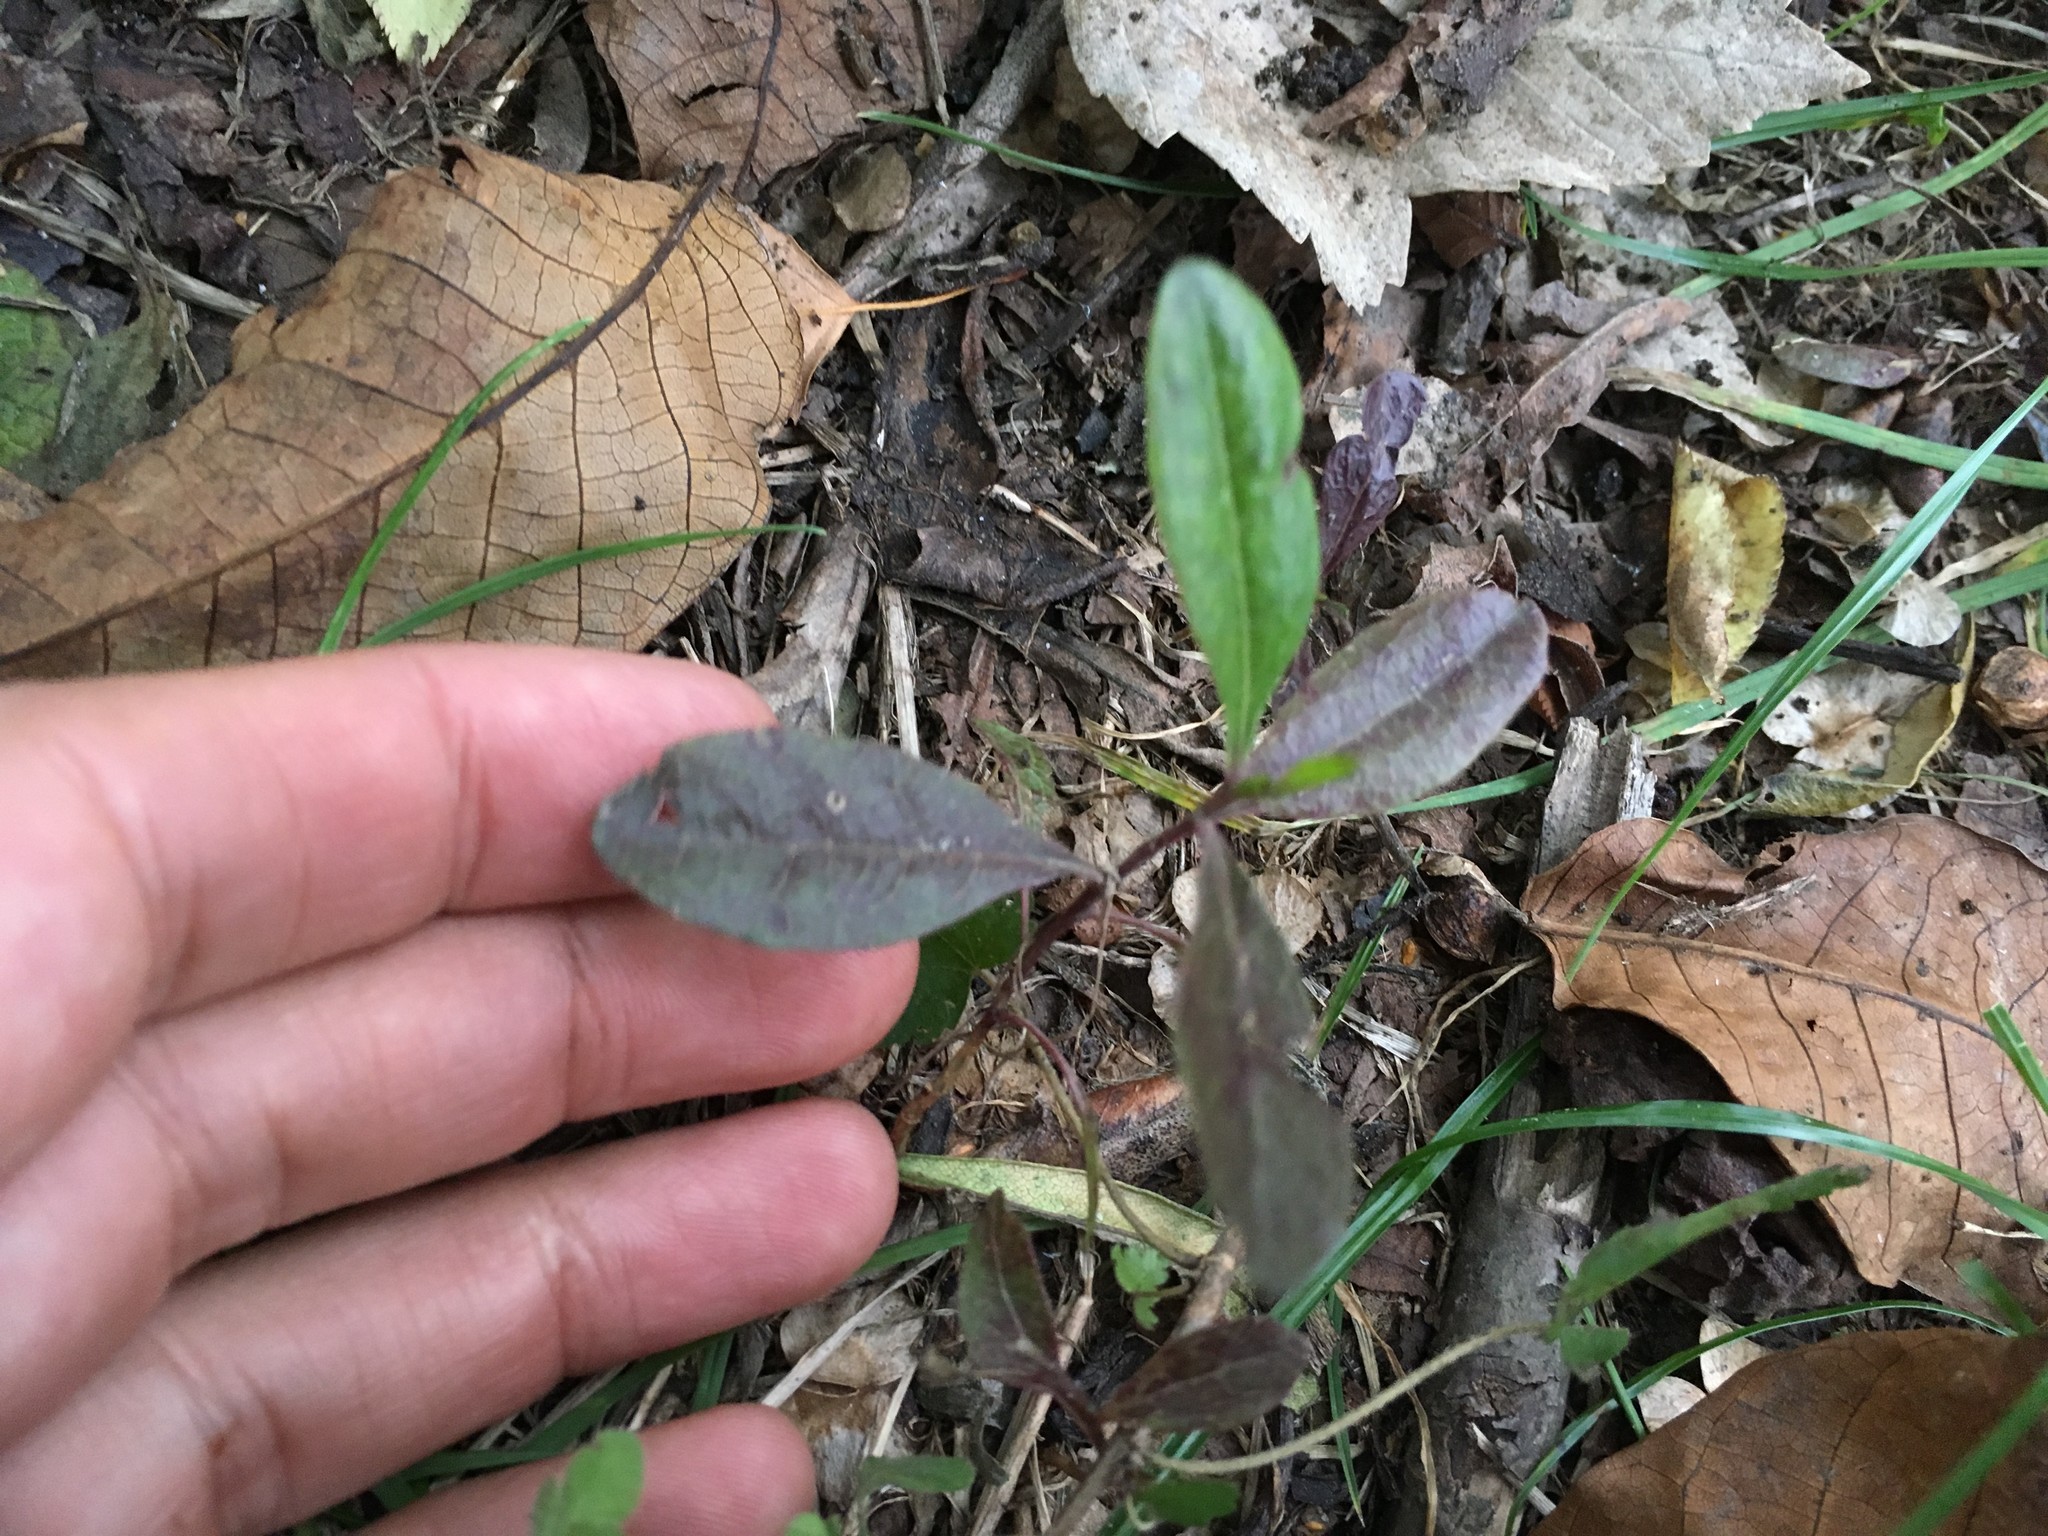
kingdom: Plantae
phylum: Tracheophyta
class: Magnoliopsida
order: Sapindales
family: Sapindaceae
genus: Dodonaea
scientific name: Dodonaea viscosa
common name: Hopbush
